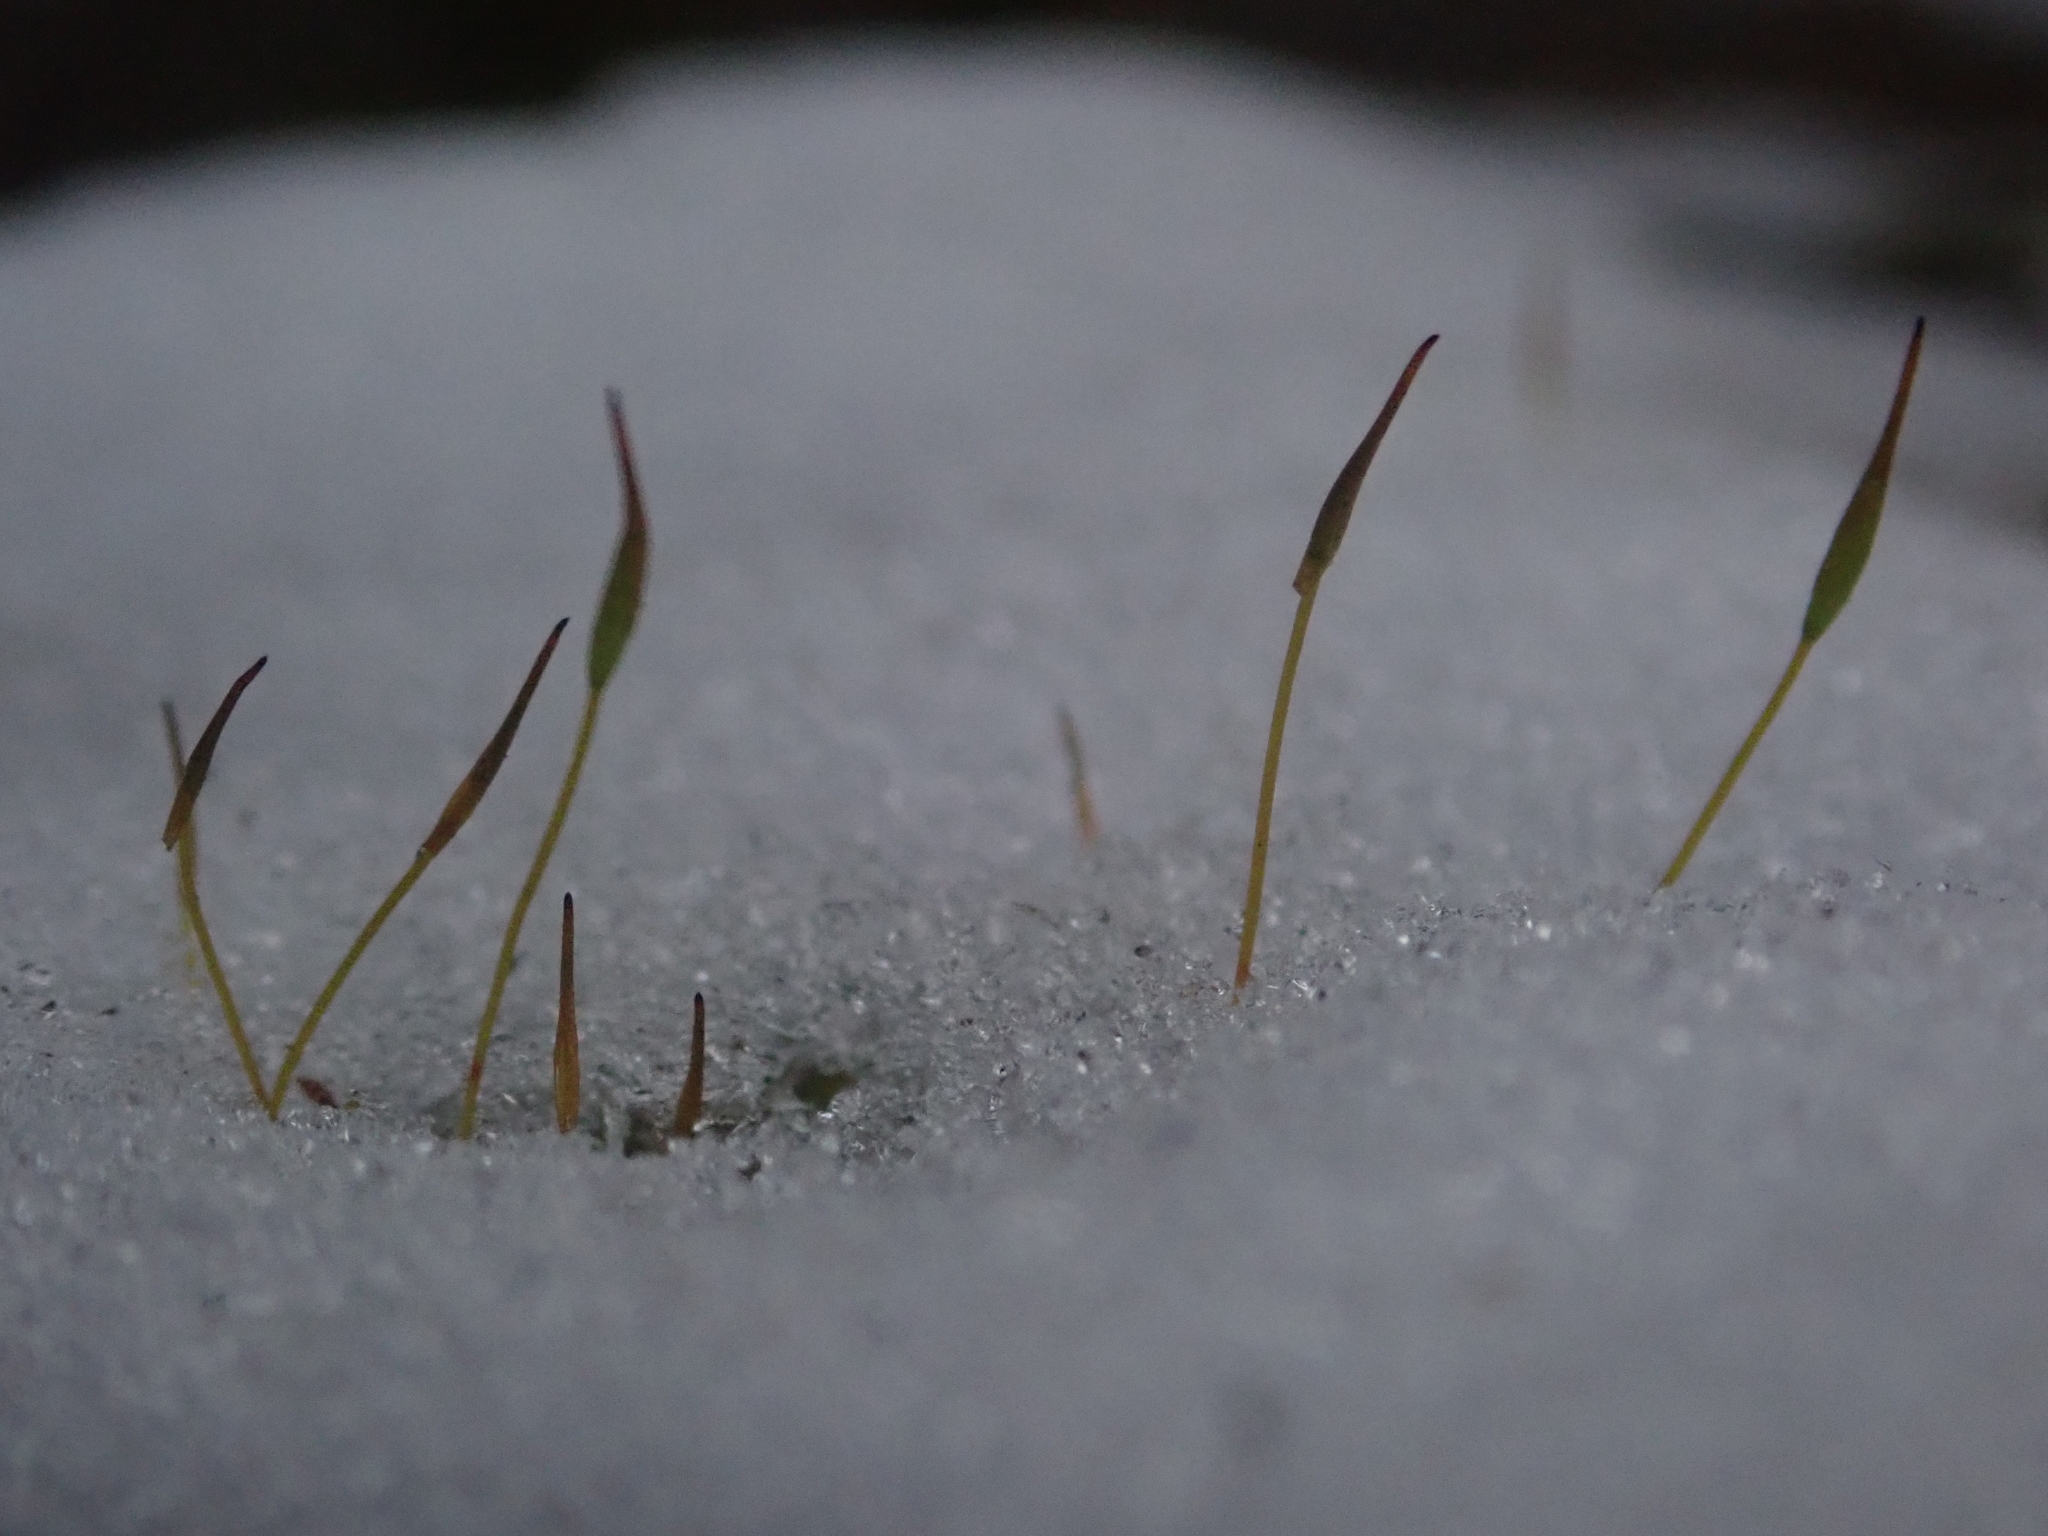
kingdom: Plantae
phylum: Bryophyta
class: Bryopsida
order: Pottiales
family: Pottiaceae
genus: Tortula
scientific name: Tortula muralis
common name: Wall screw-moss
